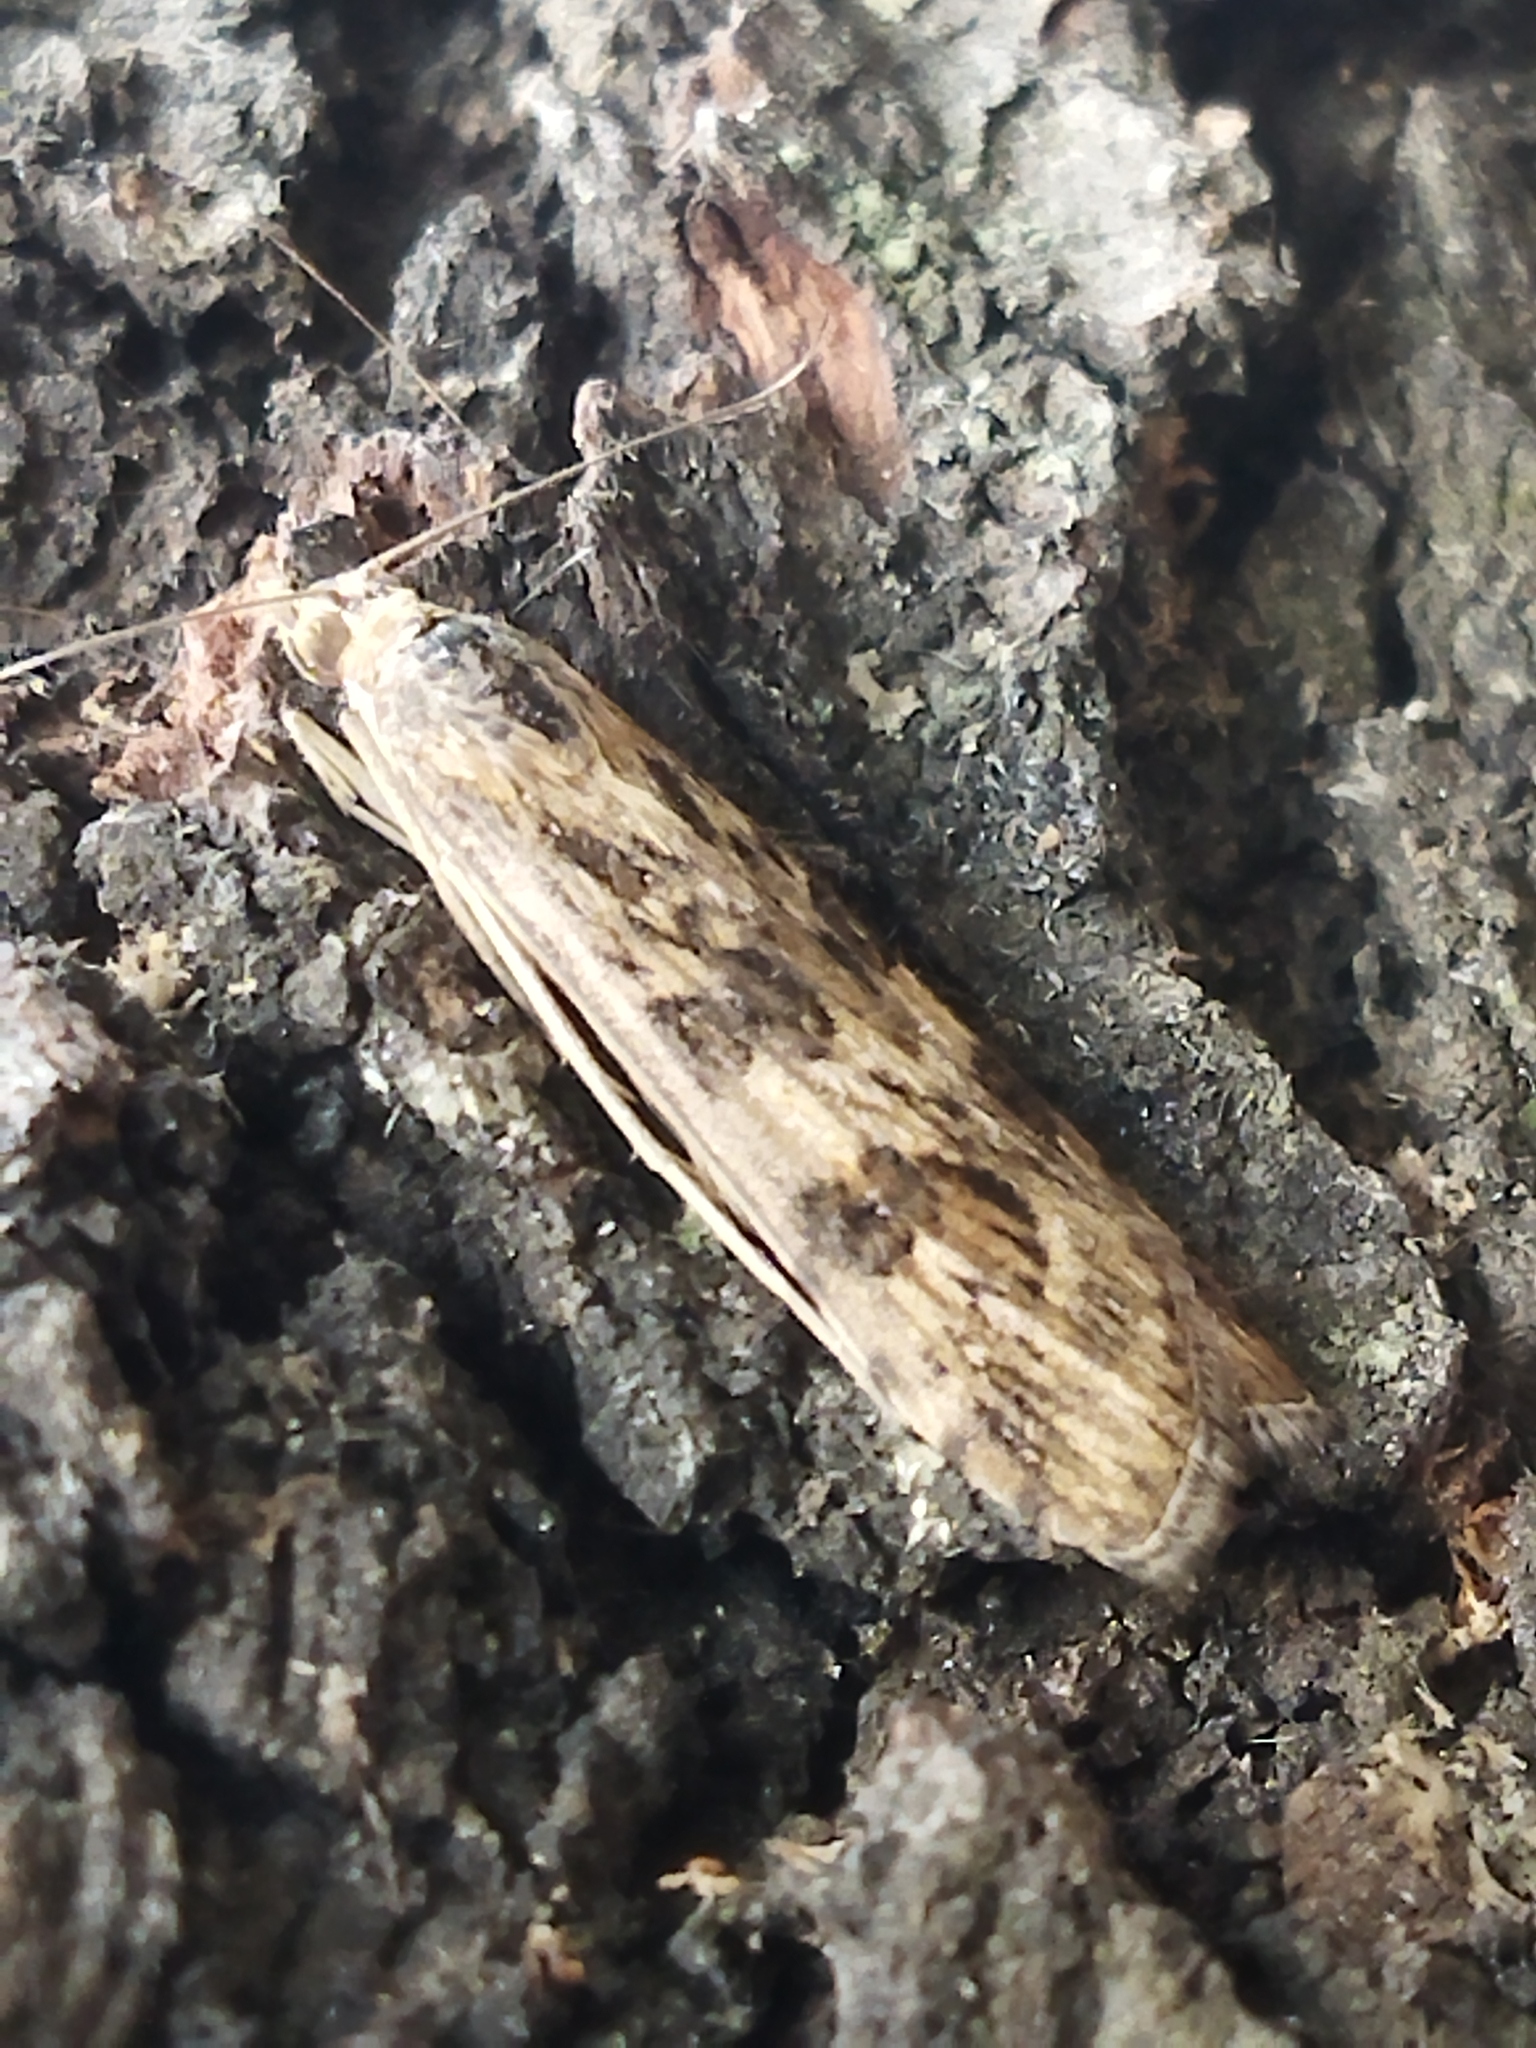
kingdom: Animalia
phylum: Arthropoda
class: Insecta
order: Lepidoptera
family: Crambidae
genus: Nomophila
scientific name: Nomophila noctuella
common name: Rush veneer
